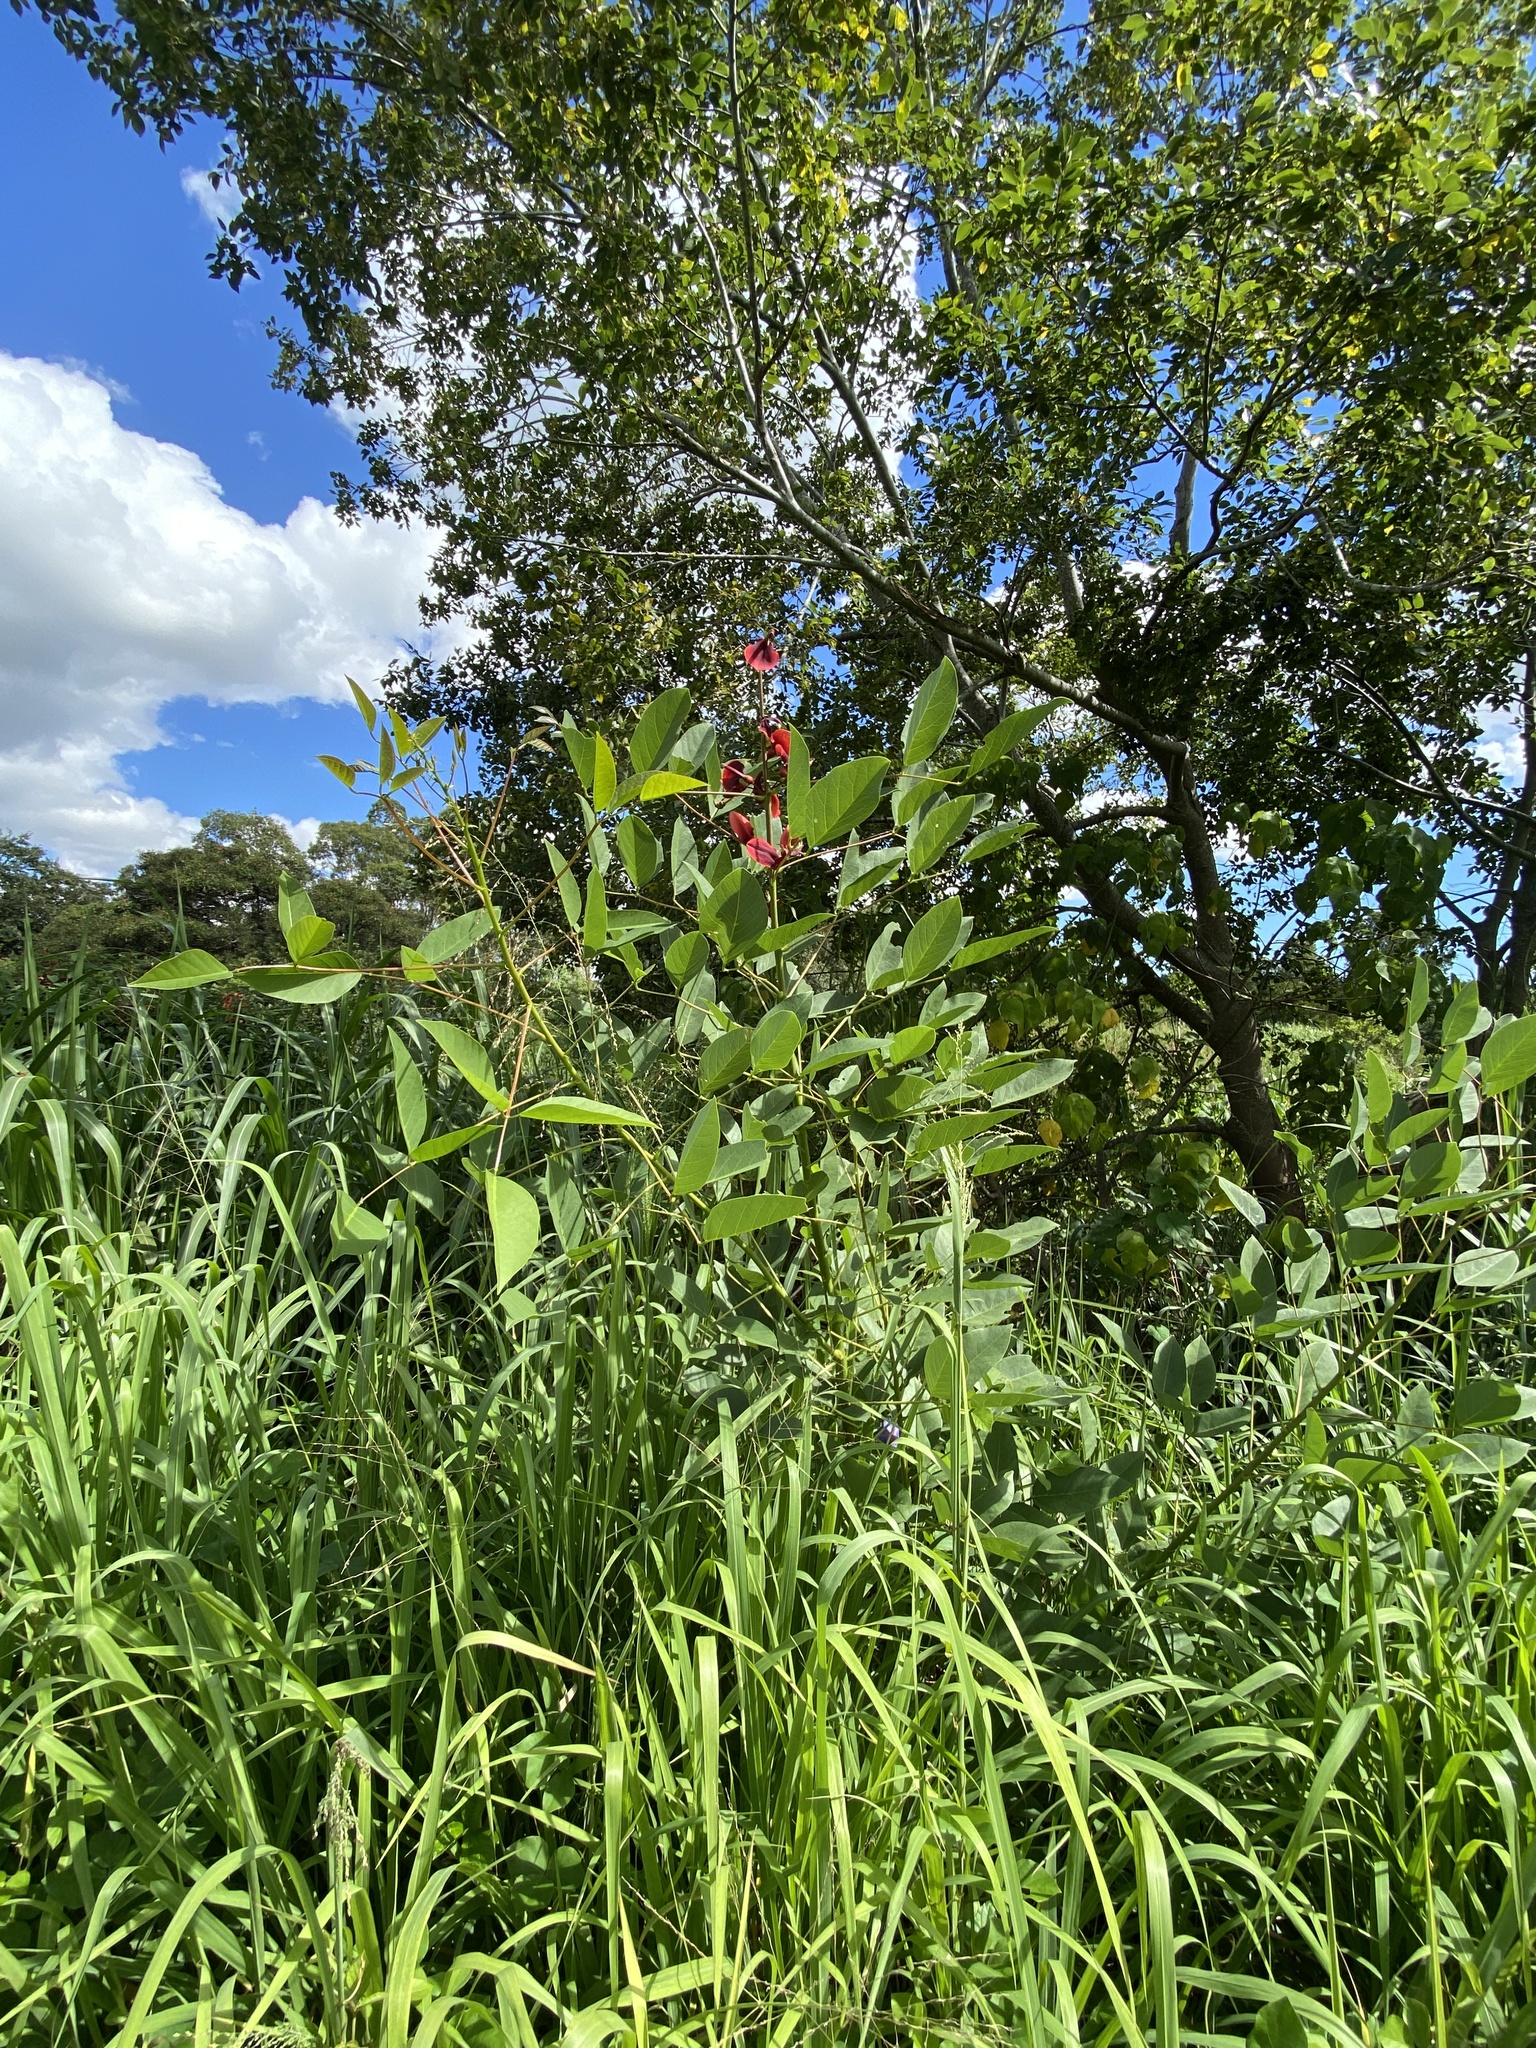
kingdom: Plantae
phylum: Tracheophyta
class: Magnoliopsida
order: Fabales
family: Fabaceae
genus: Erythrina
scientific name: Erythrina crista-galli
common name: Cockspur coral tree
